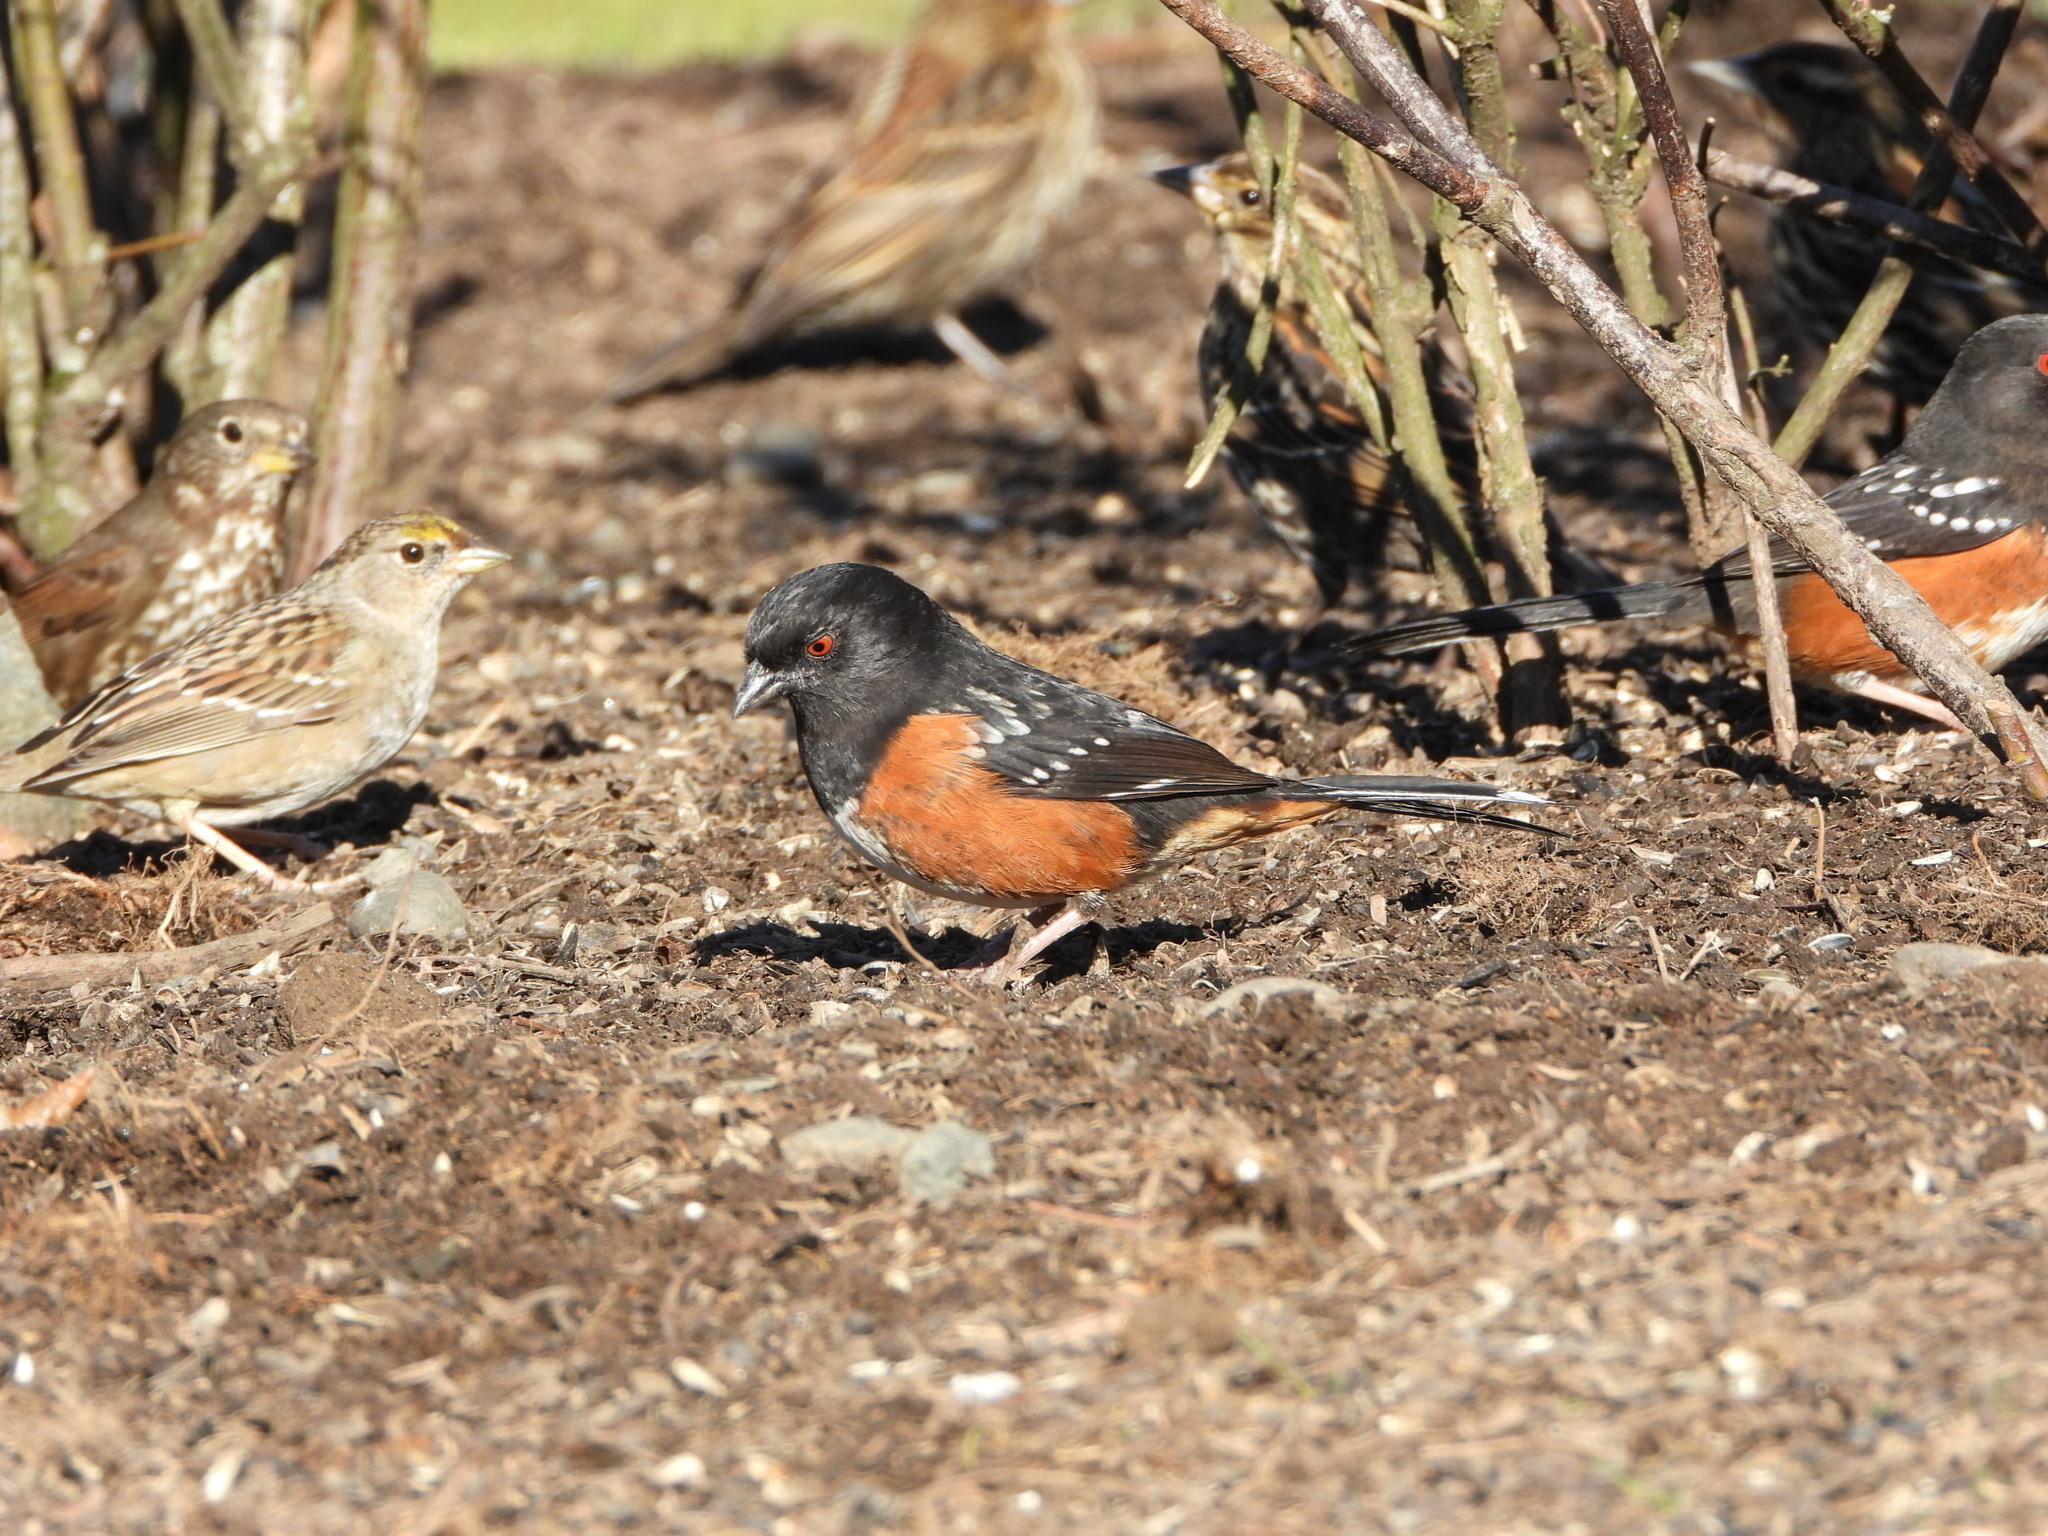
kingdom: Animalia
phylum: Chordata
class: Aves
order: Passeriformes
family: Passerellidae
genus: Pipilo
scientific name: Pipilo maculatus
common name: Spotted towhee
